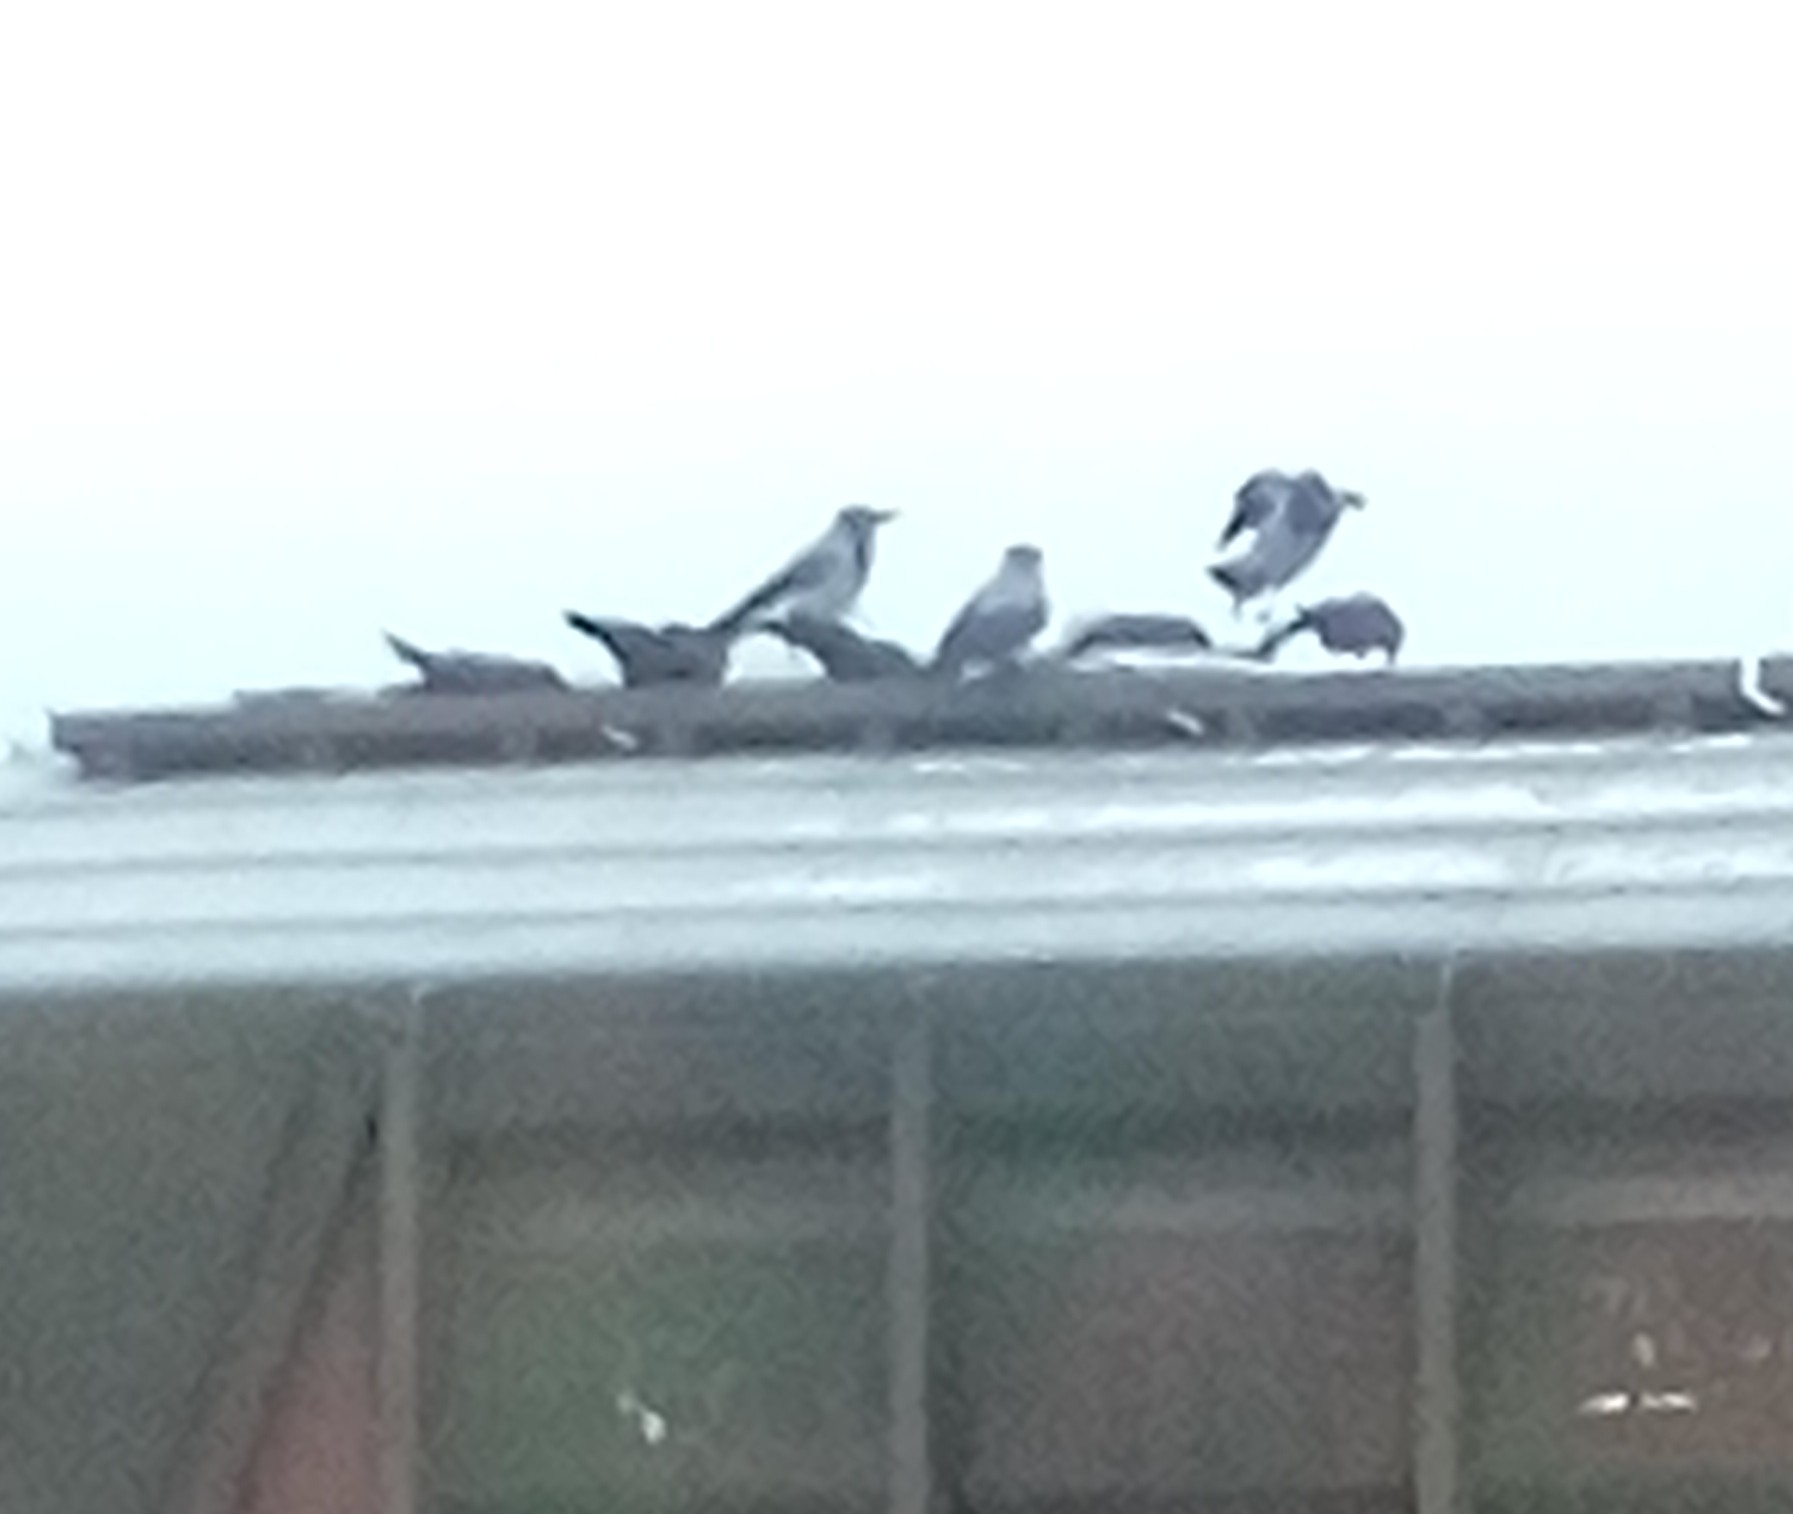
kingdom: Animalia
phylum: Chordata
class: Aves
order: Passeriformes
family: Corvidae
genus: Corvus
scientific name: Corvus cornix
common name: Hooded crow
